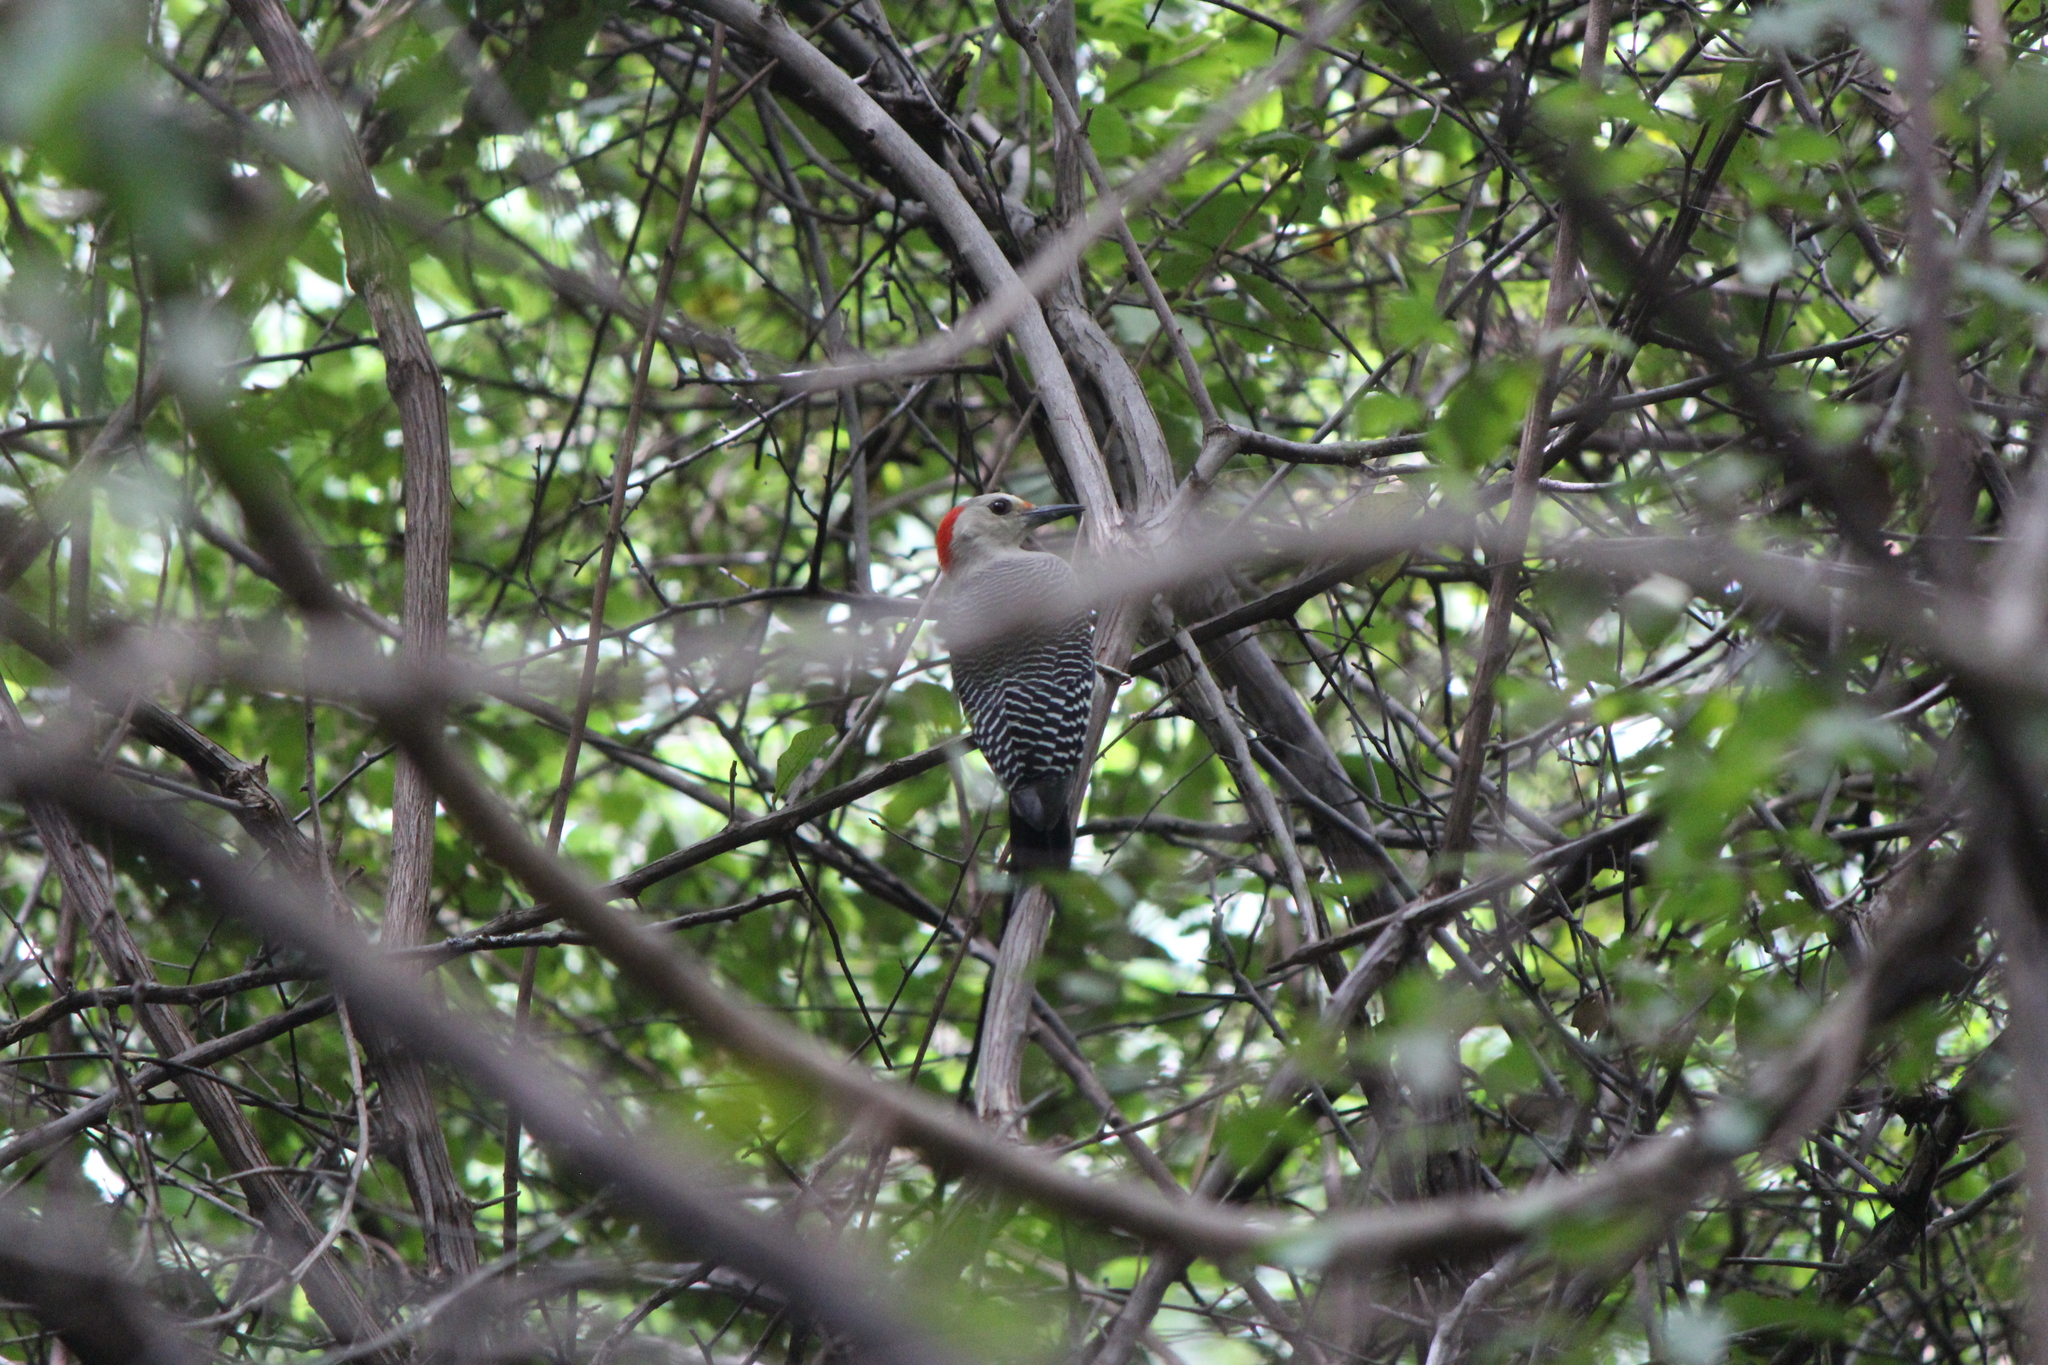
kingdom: Animalia
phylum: Chordata
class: Aves
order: Piciformes
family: Picidae
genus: Melanerpes
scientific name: Melanerpes santacruzi
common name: Velasquez's woodpecker
